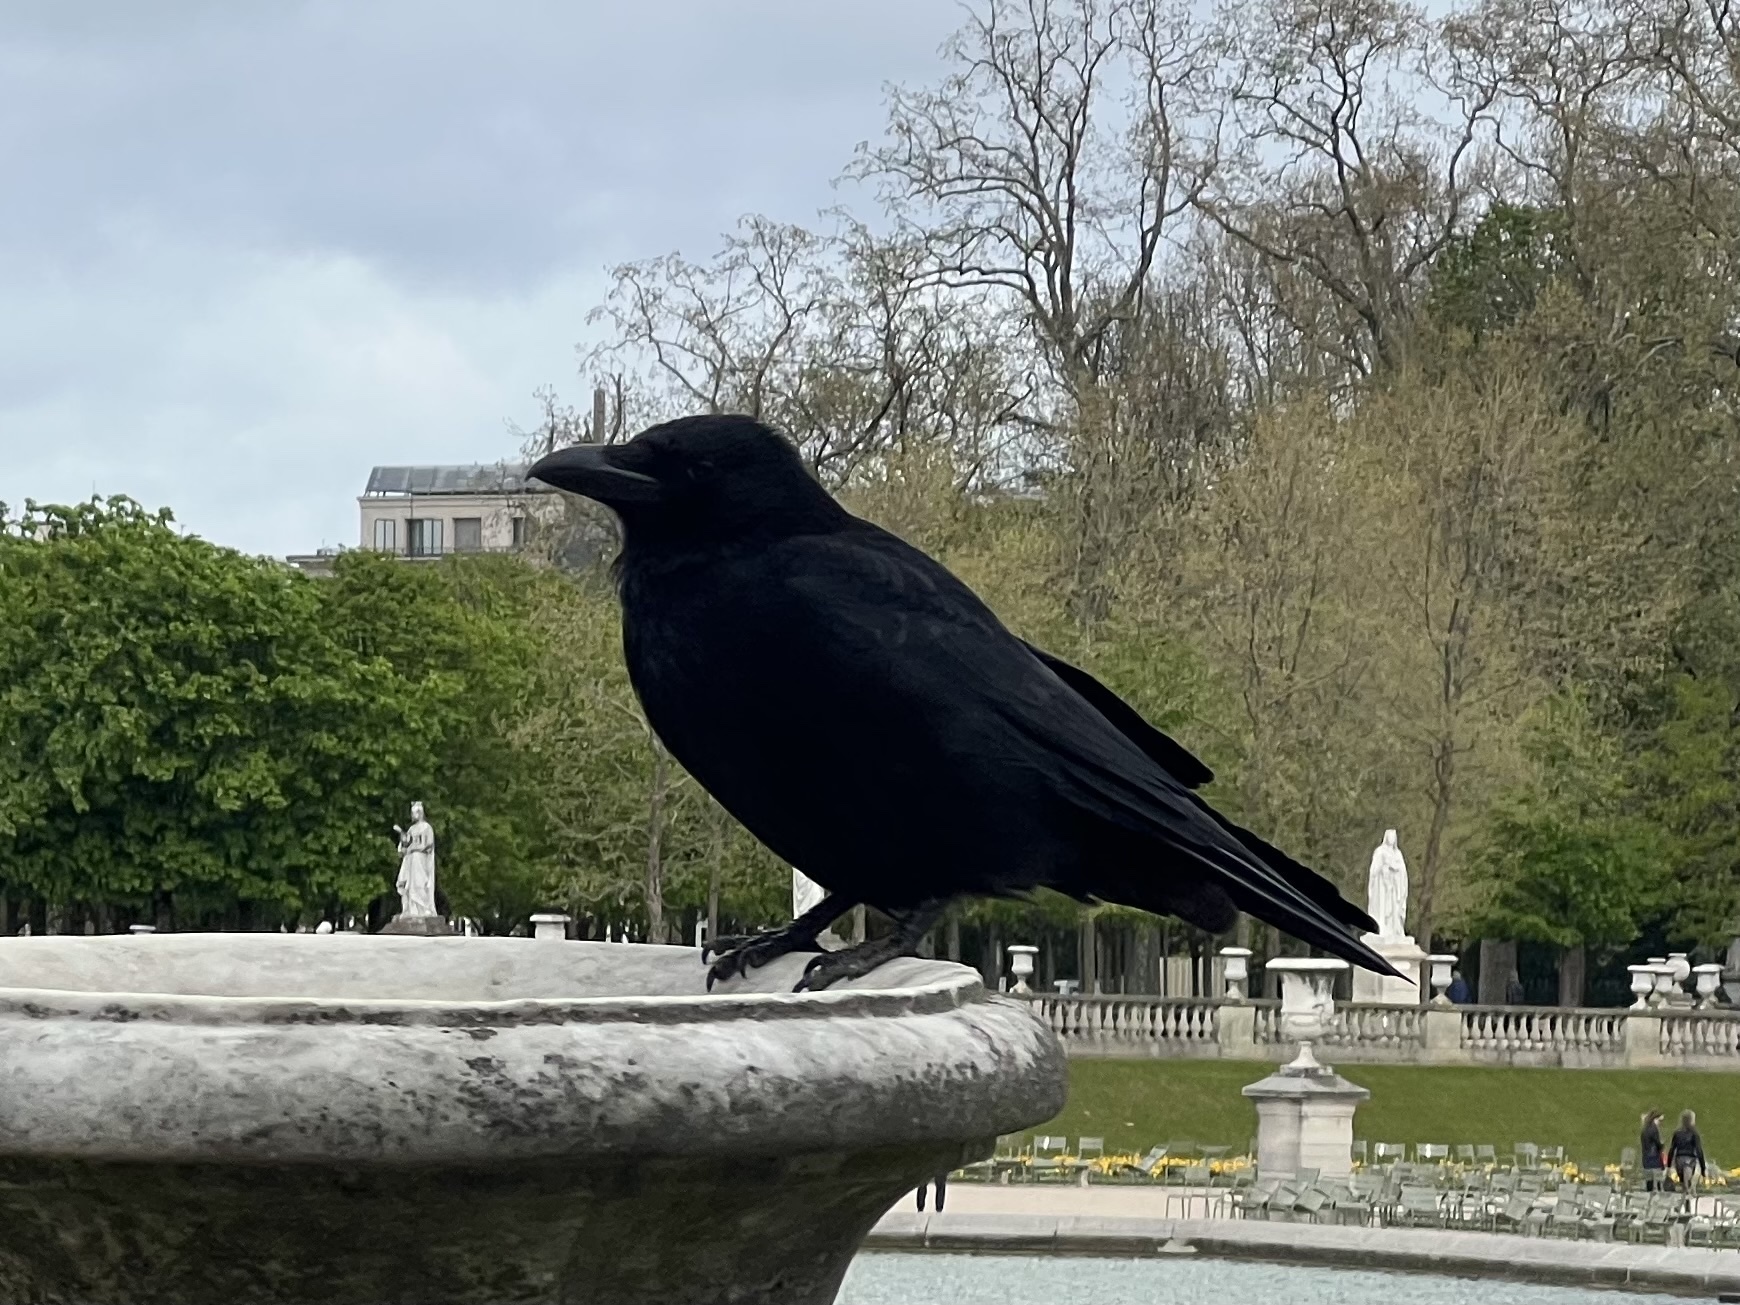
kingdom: Animalia
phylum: Chordata
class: Aves
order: Passeriformes
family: Corvidae
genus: Corvus
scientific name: Corvus corone
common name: Carrion crow
